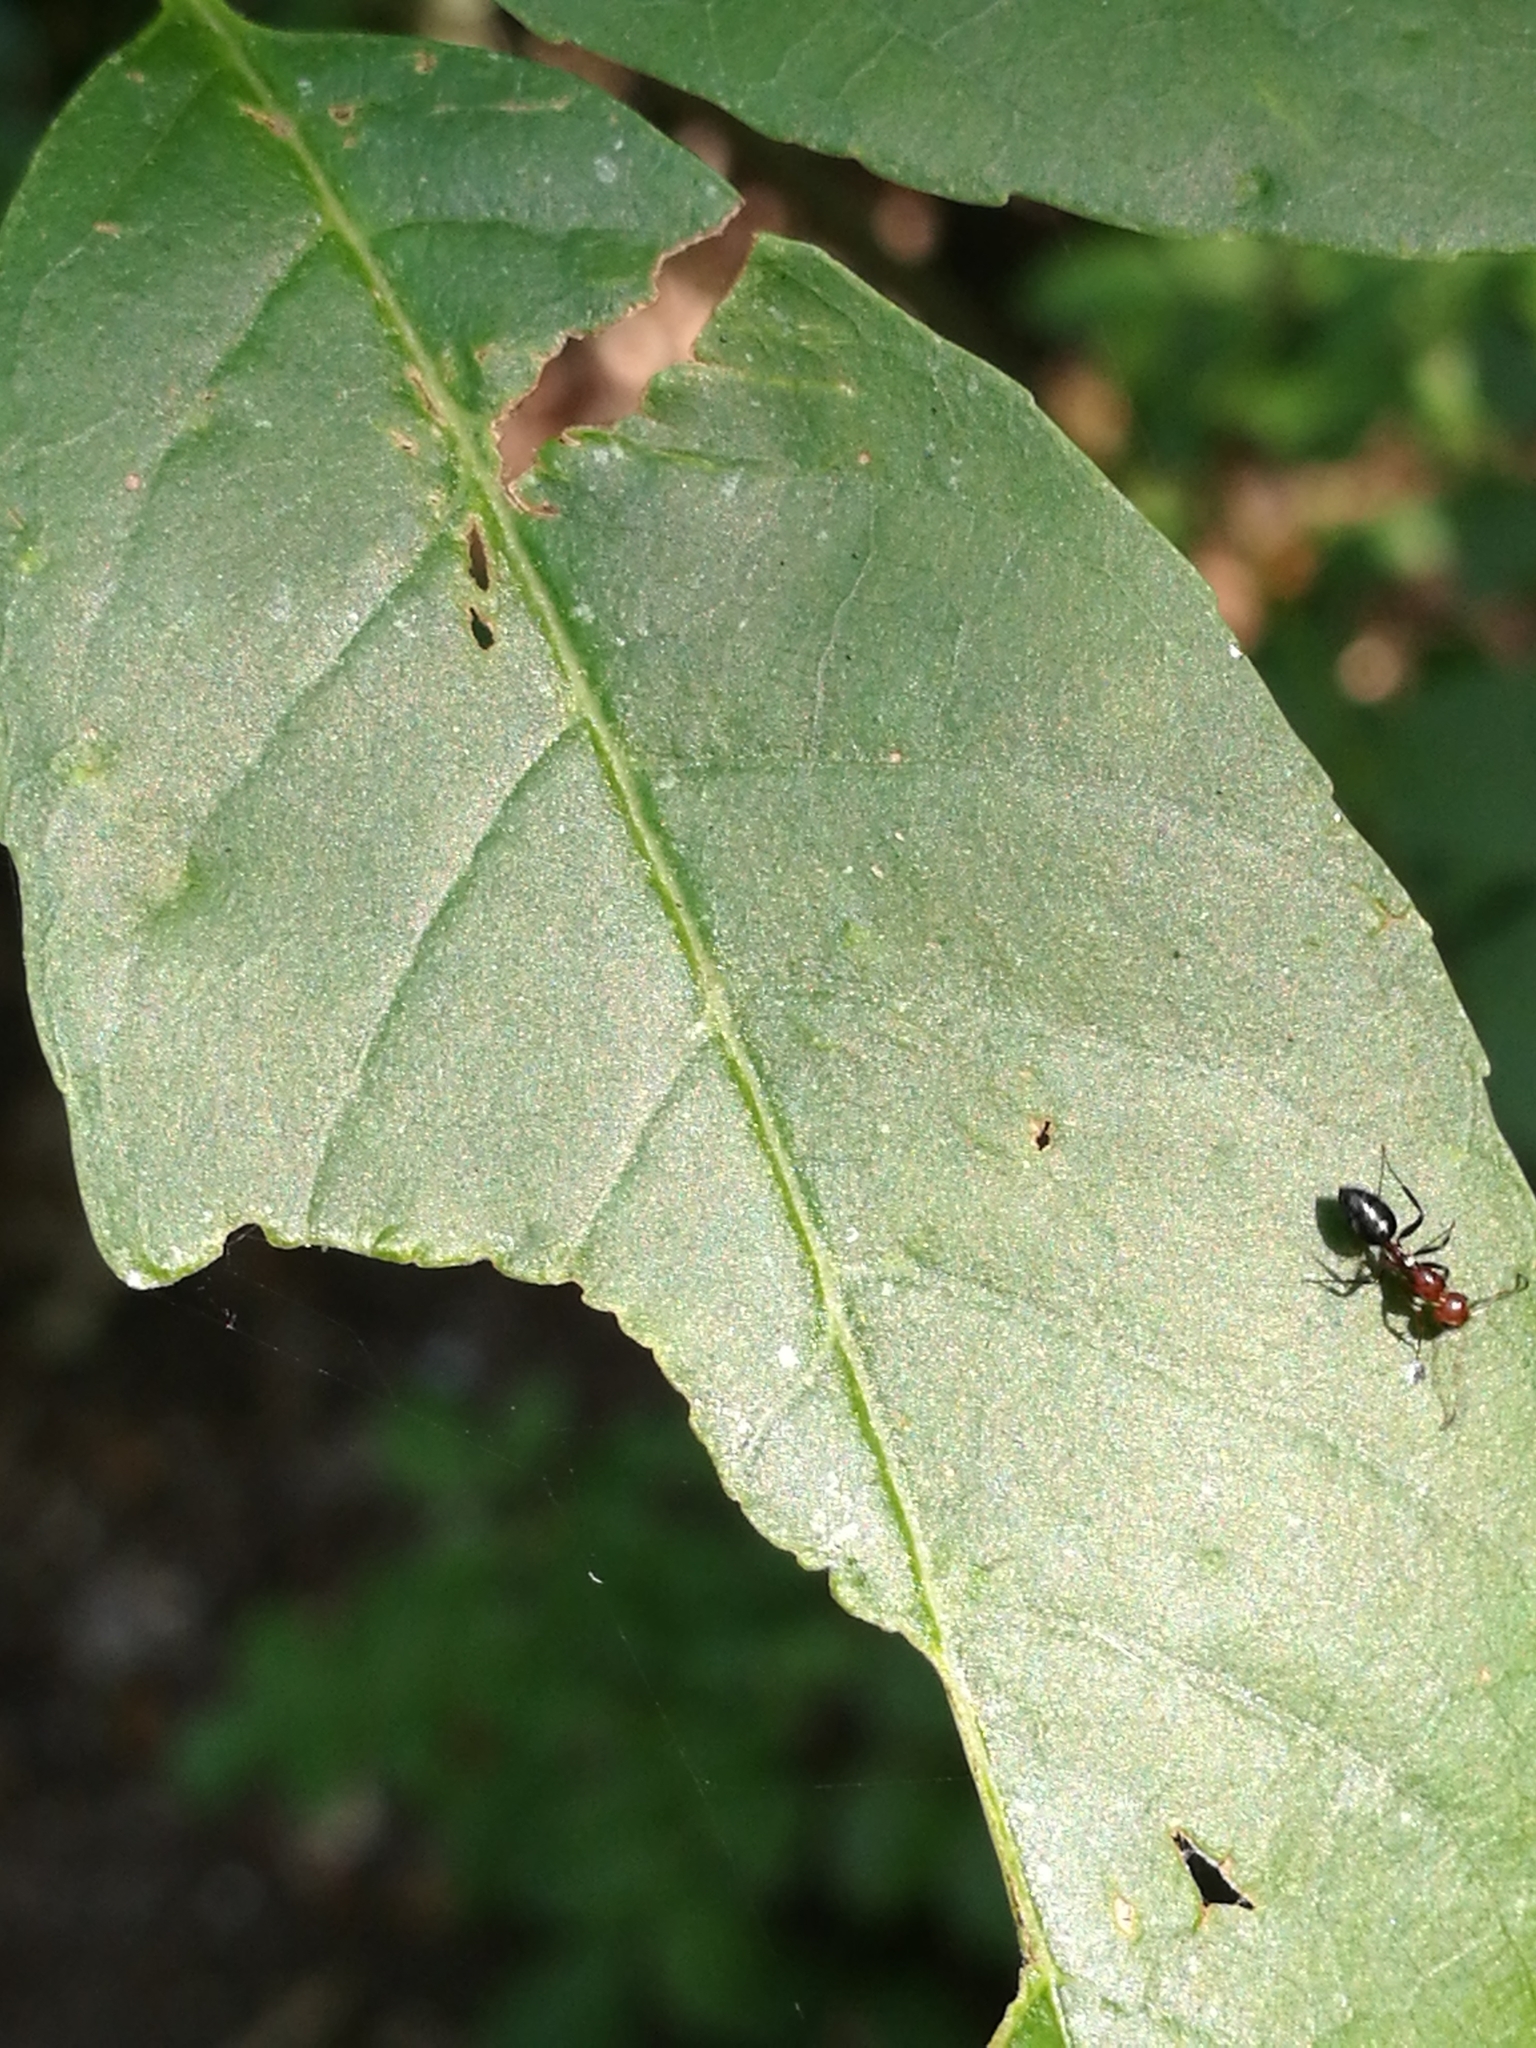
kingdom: Animalia
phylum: Arthropoda
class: Insecta
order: Hymenoptera
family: Formicidae
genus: Camponotus
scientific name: Camponotus lateralis
